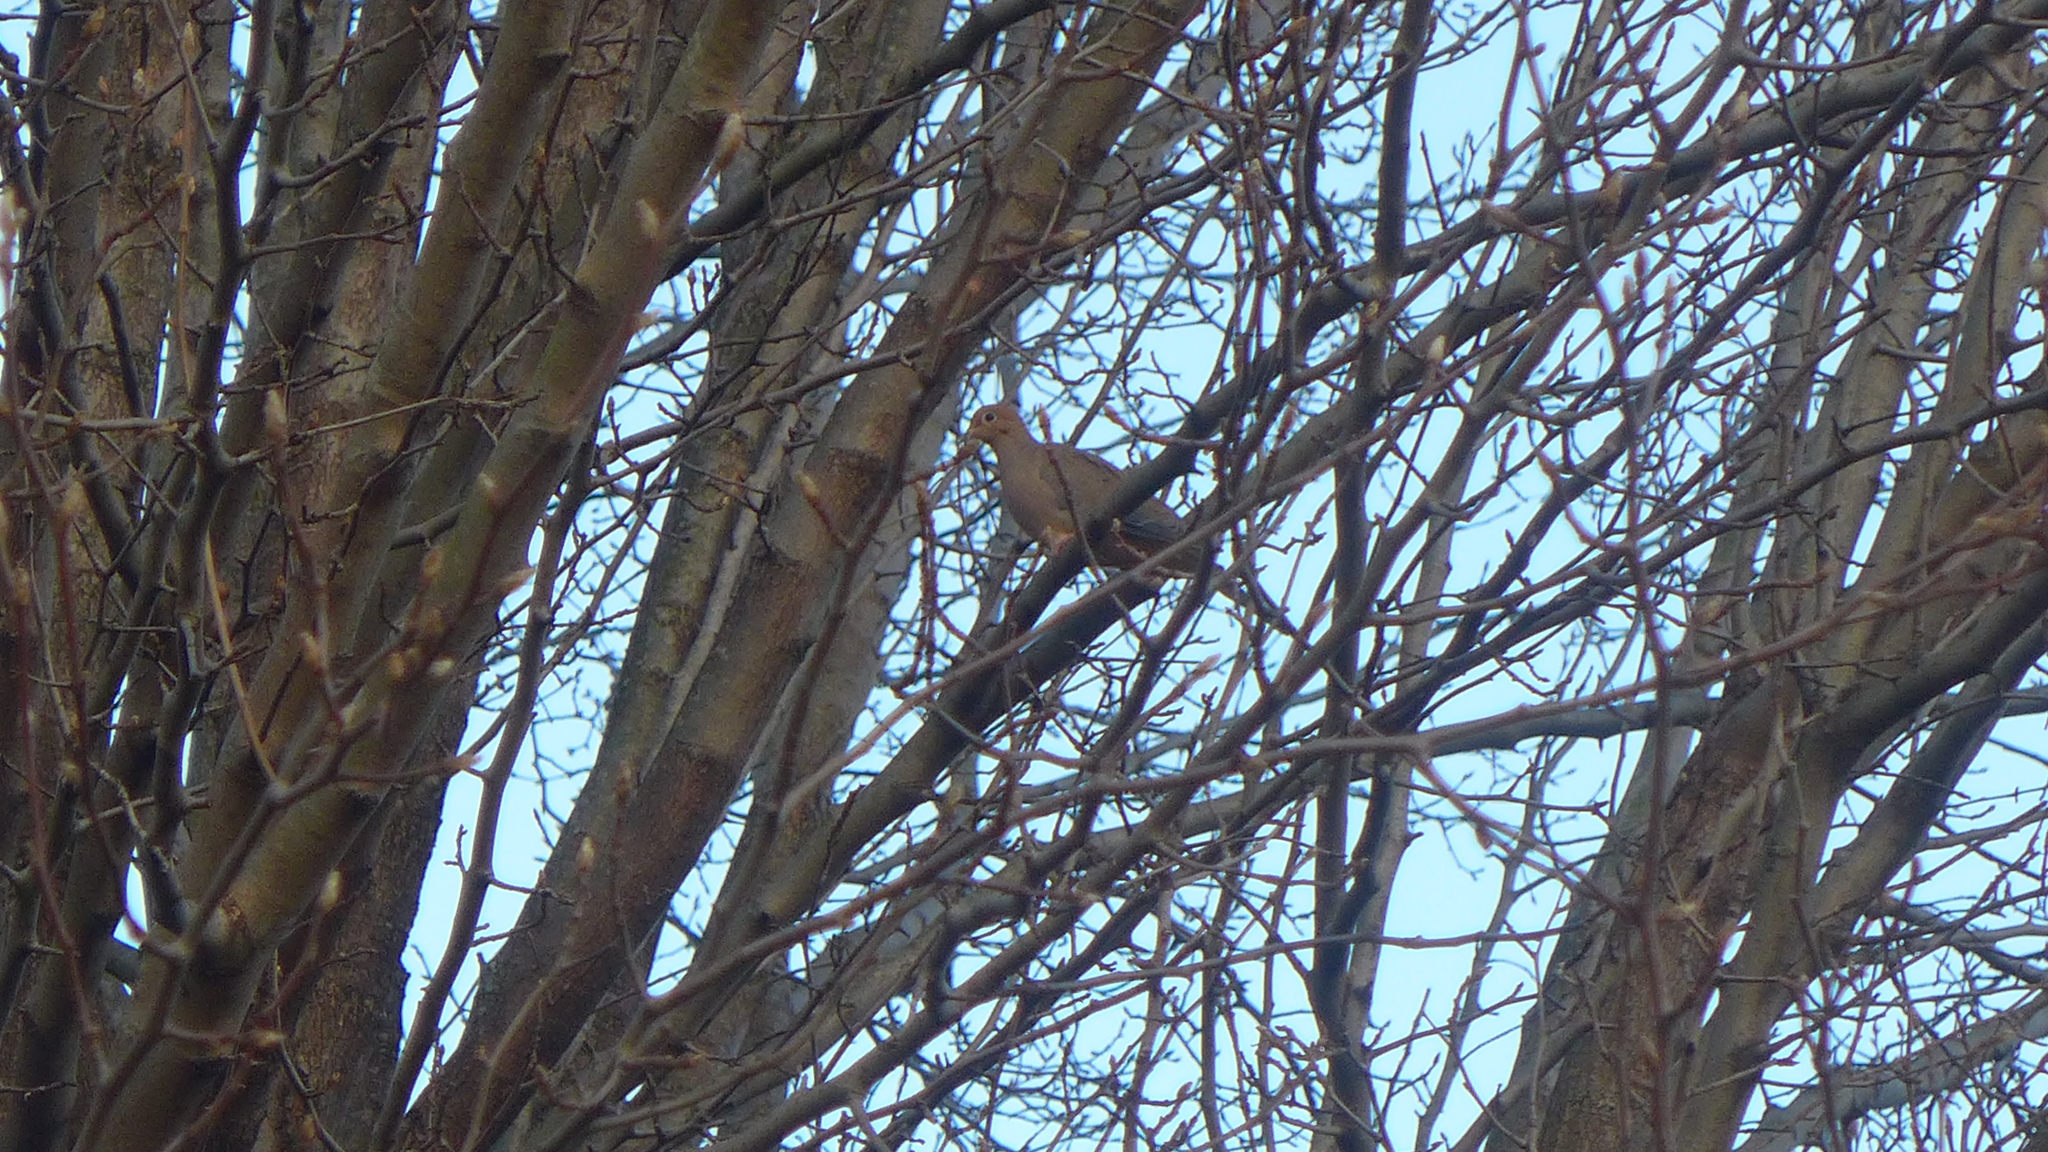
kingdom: Animalia
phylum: Chordata
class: Aves
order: Columbiformes
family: Columbidae
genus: Zenaida
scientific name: Zenaida macroura
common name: Mourning dove
